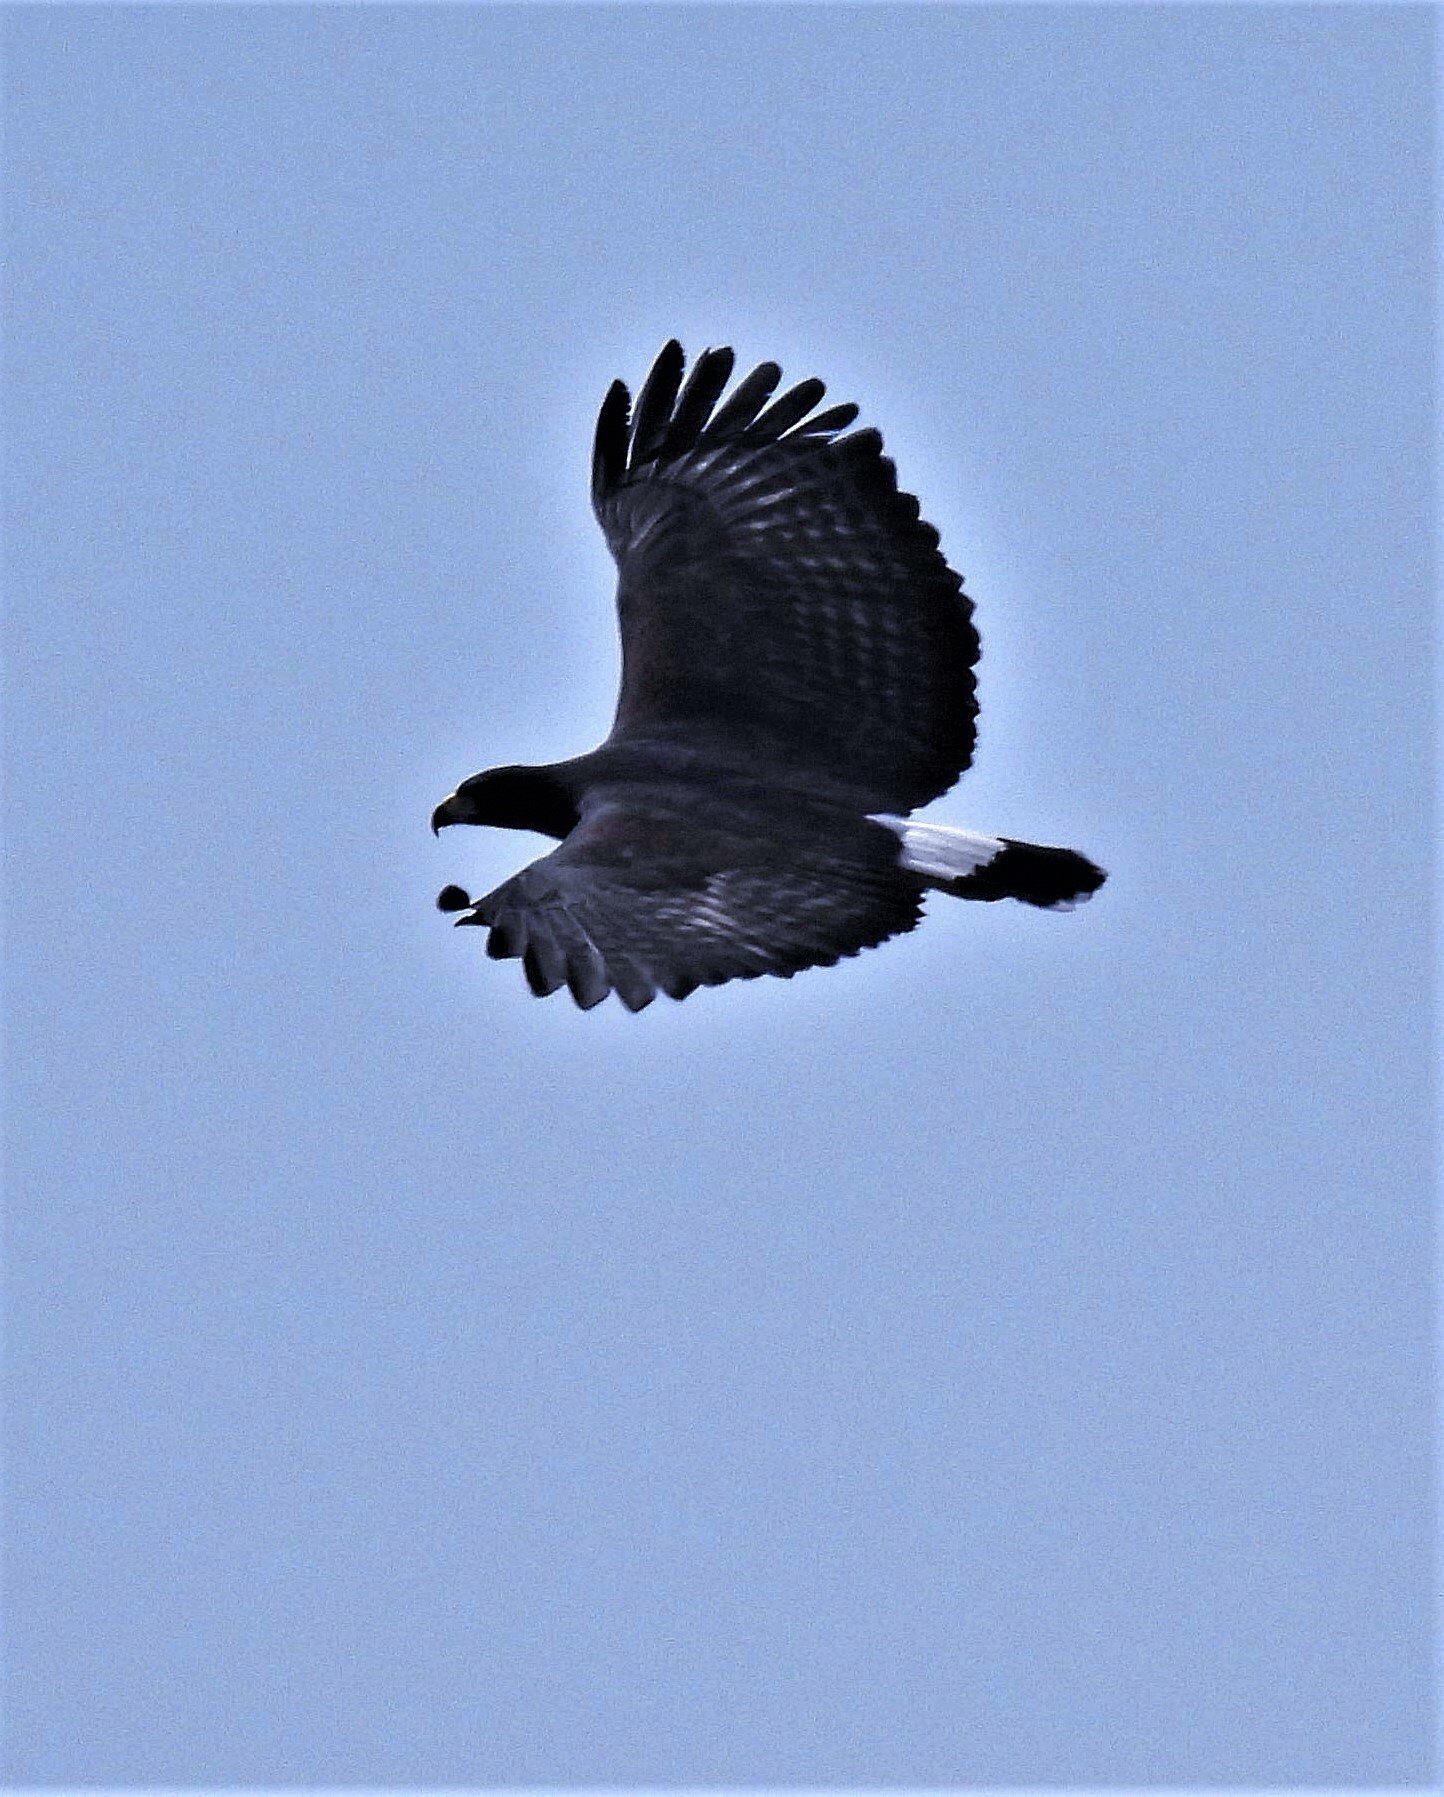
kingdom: Animalia
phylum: Chordata
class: Aves
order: Accipitriformes
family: Accipitridae
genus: Buteogallus
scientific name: Buteogallus urubitinga
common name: Great black hawk
